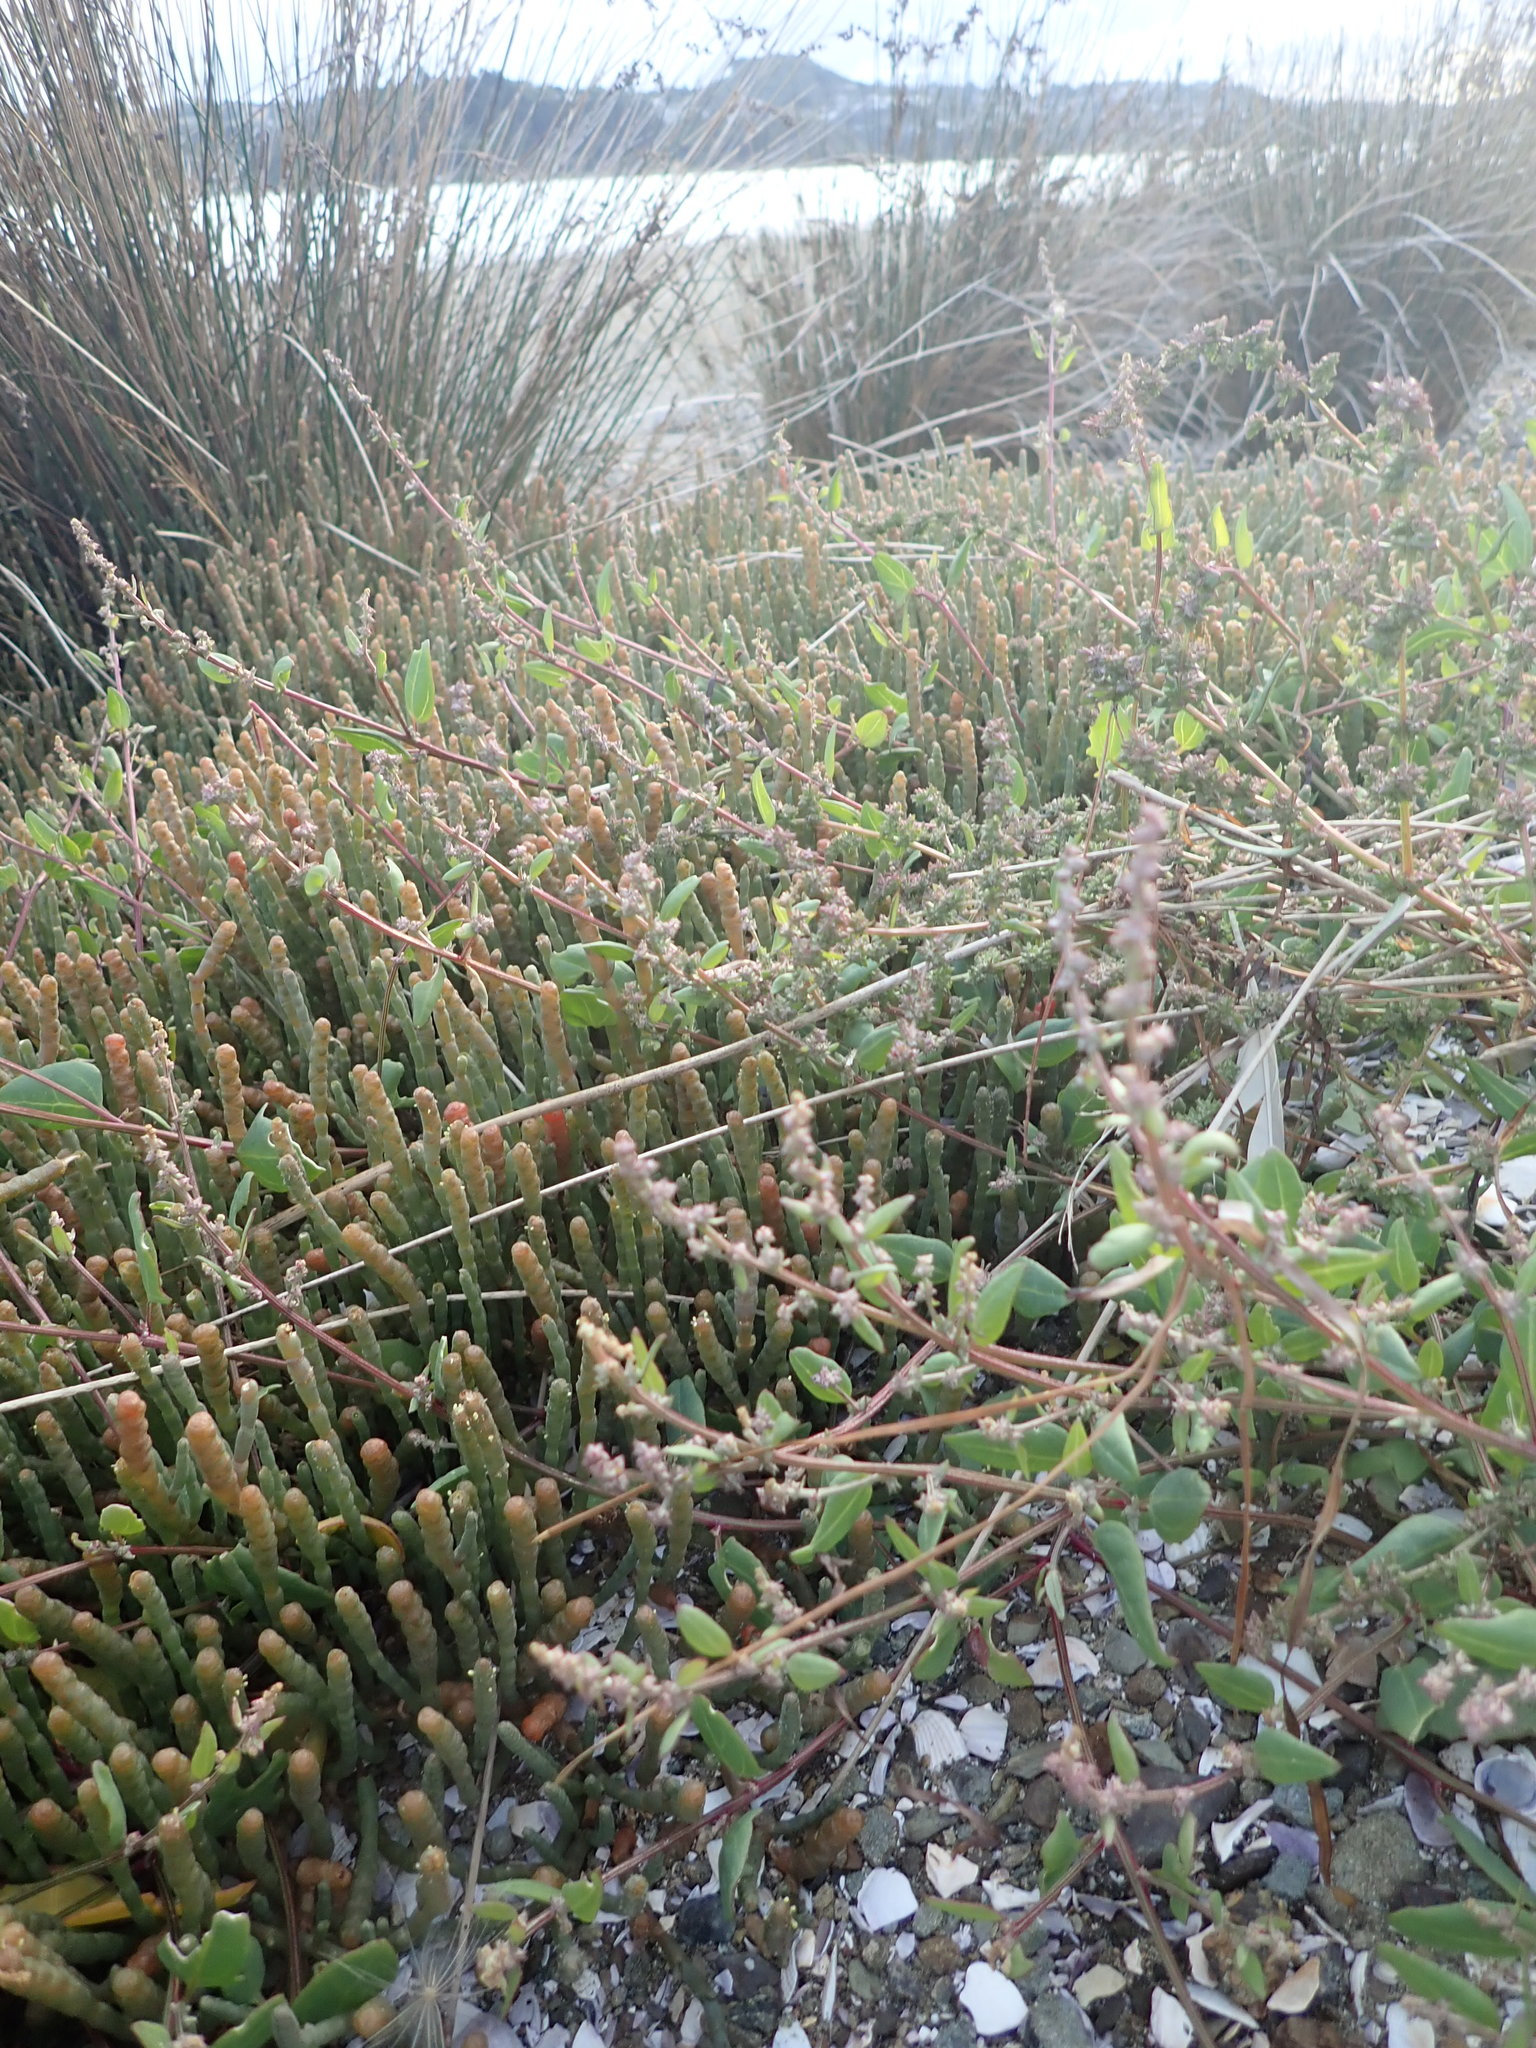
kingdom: Plantae
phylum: Tracheophyta
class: Magnoliopsida
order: Caryophyllales
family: Amaranthaceae
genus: Atriplex
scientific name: Atriplex prostrata
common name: Spear-leaved orache
